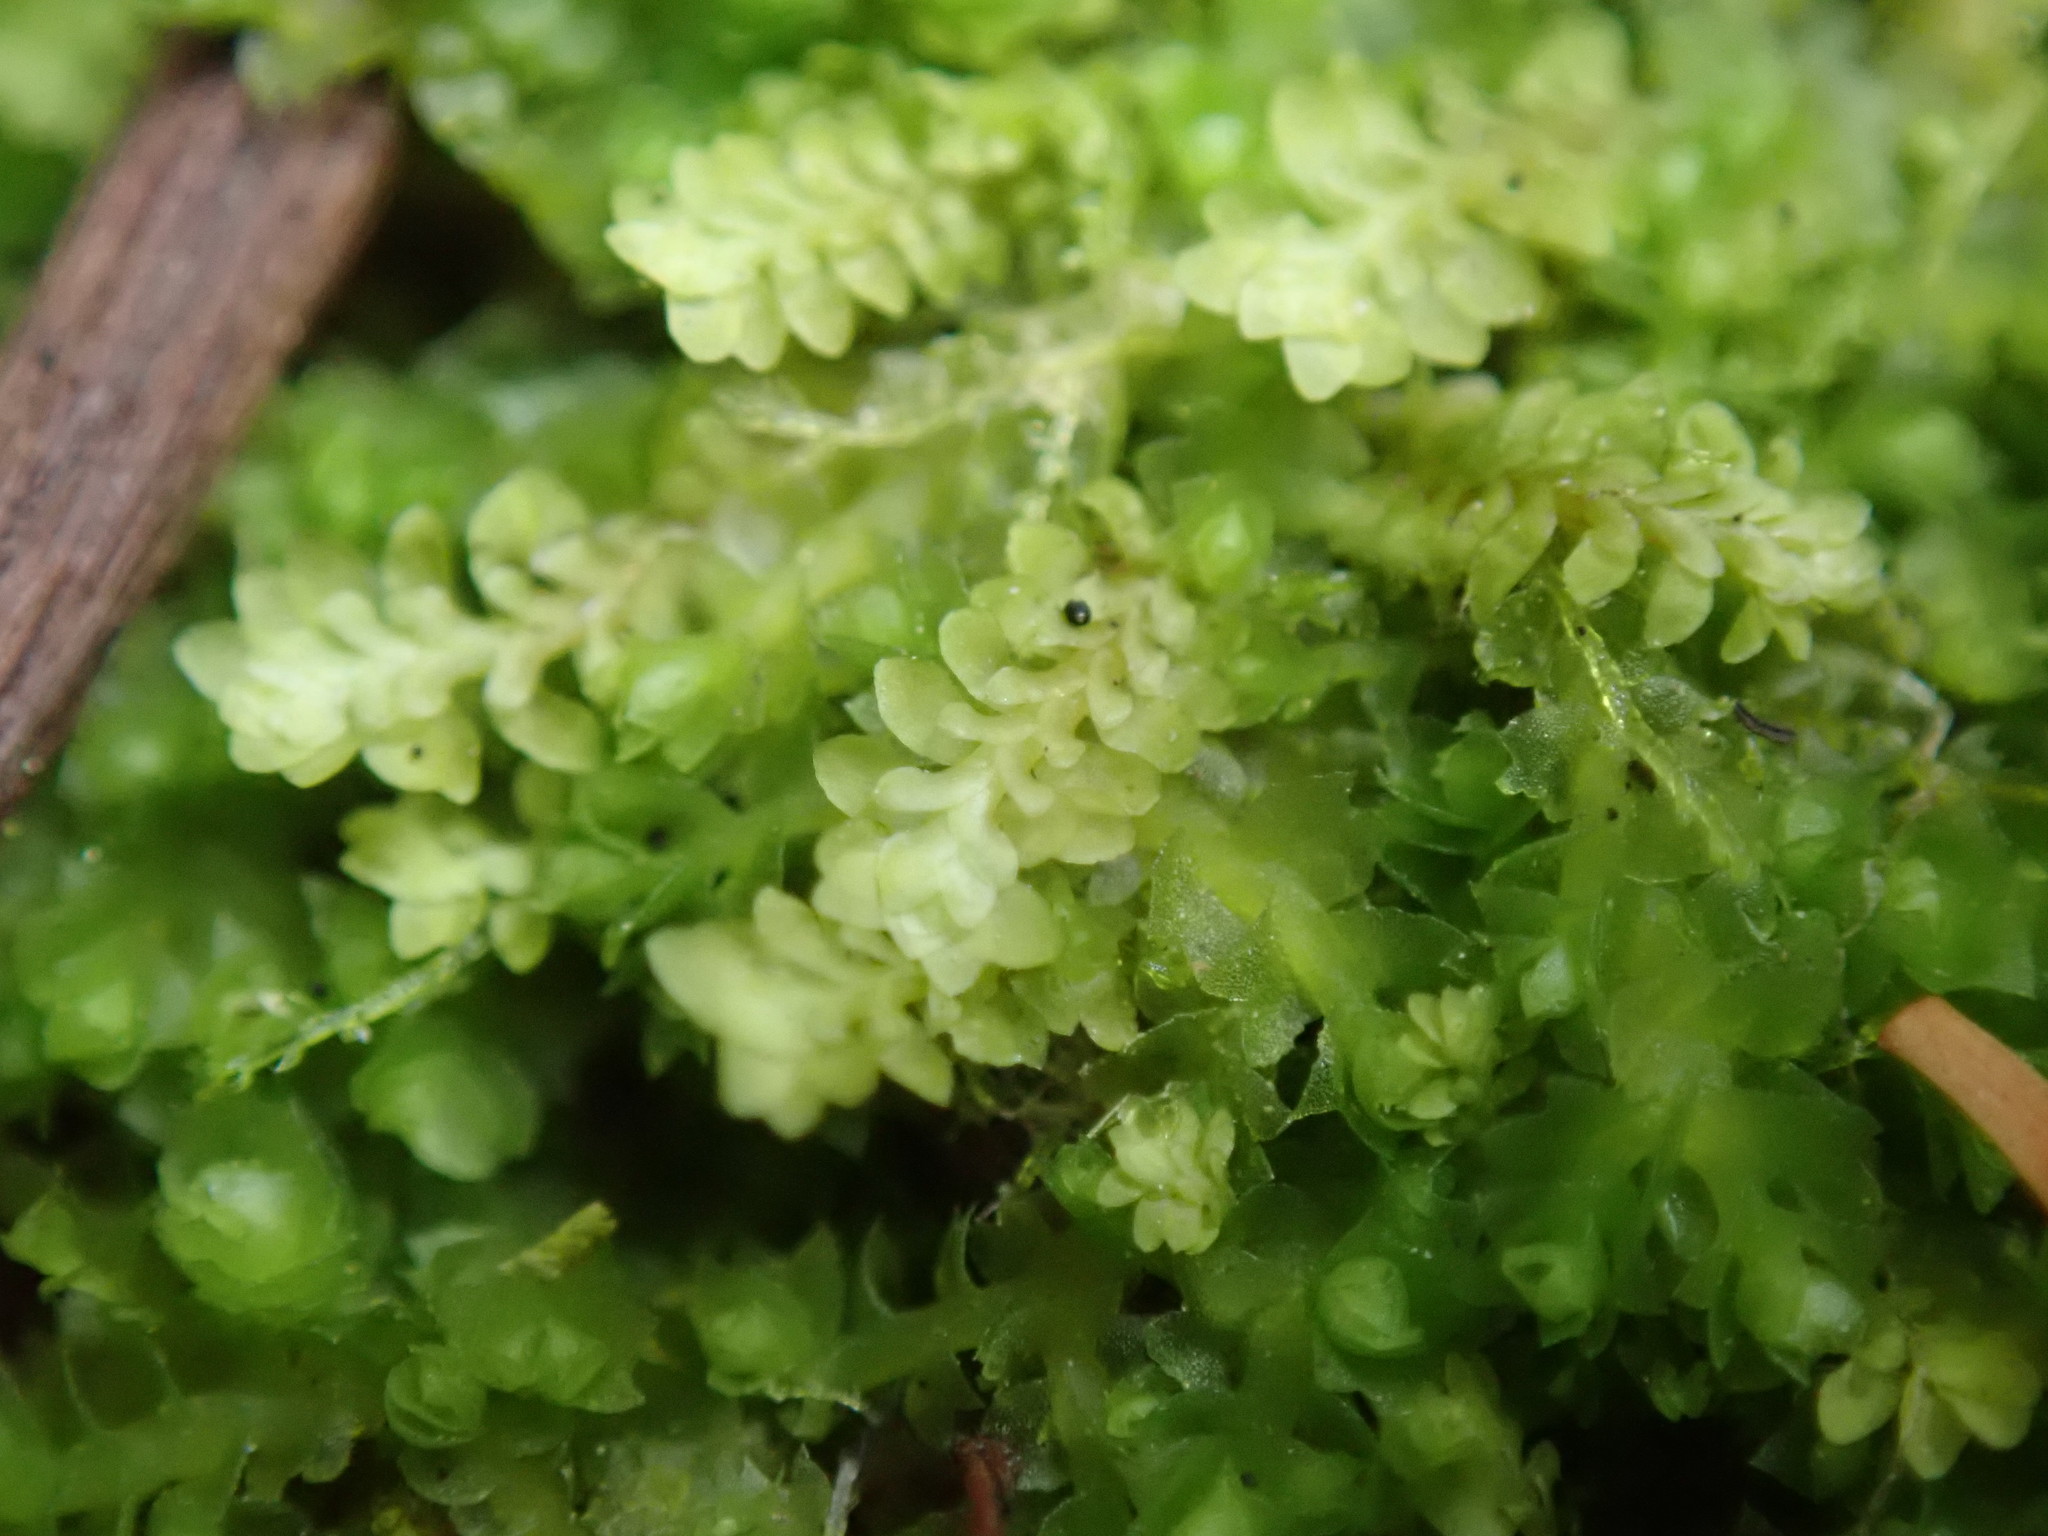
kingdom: Plantae
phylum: Marchantiophyta
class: Jungermanniopsida
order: Jungermanniales
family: Scapaniaceae
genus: Diplophyllum
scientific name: Diplophyllum taxifolium
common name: Alpine earwort
